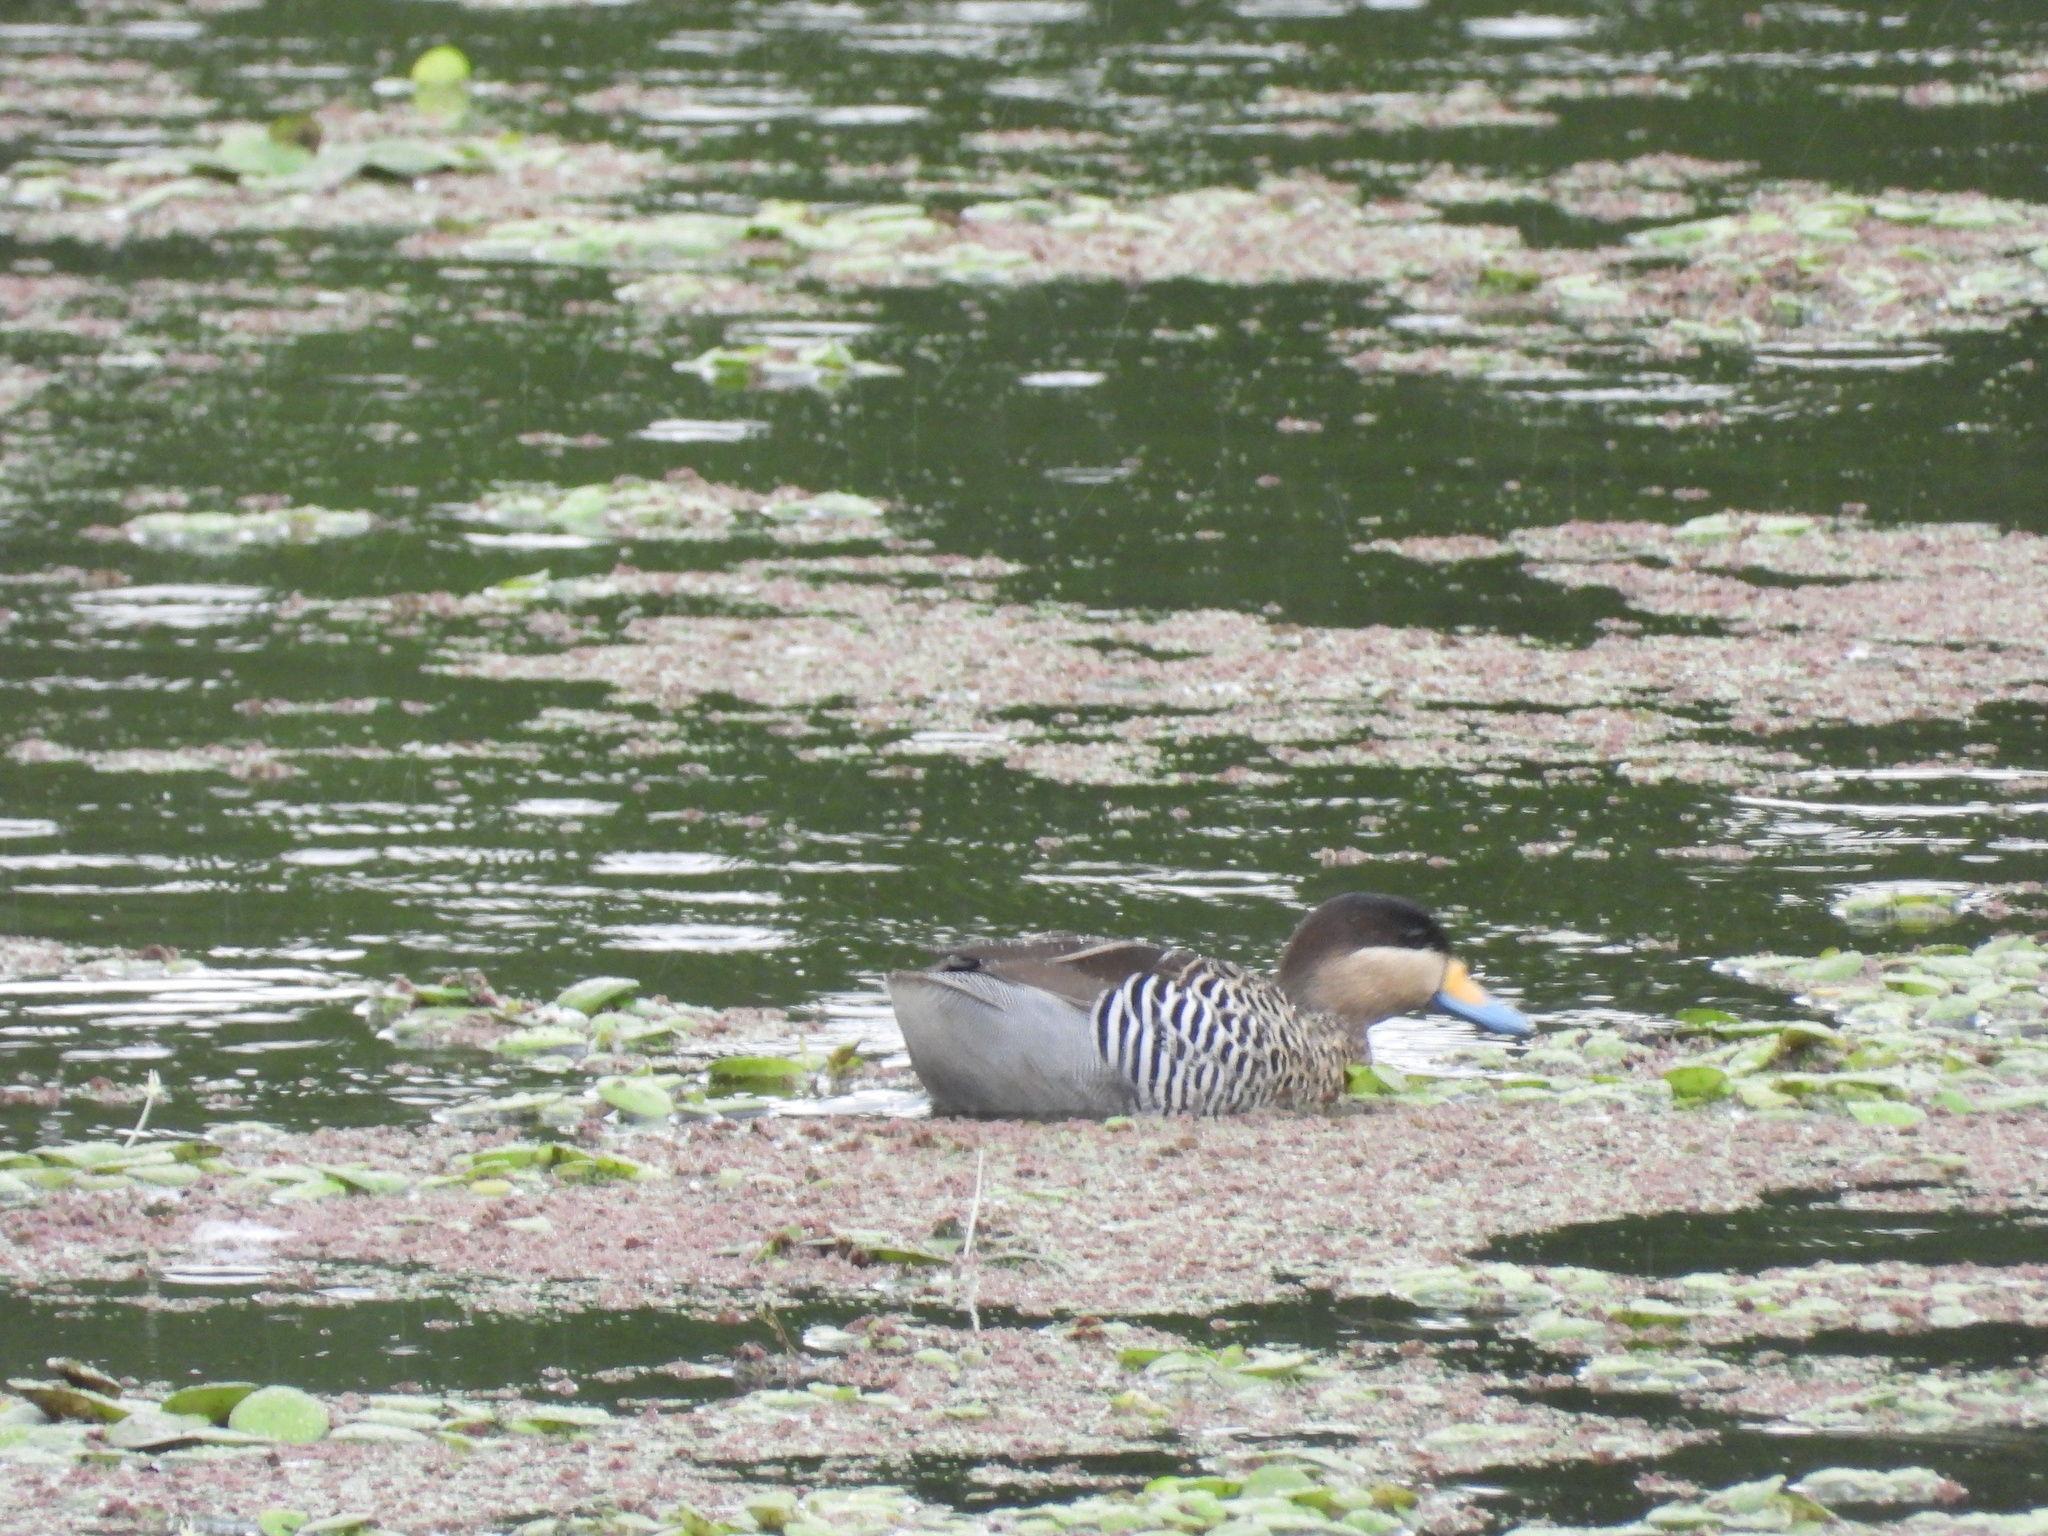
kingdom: Animalia
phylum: Chordata
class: Aves
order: Anseriformes
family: Anatidae
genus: Spatula
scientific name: Spatula versicolor
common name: Silver teal
